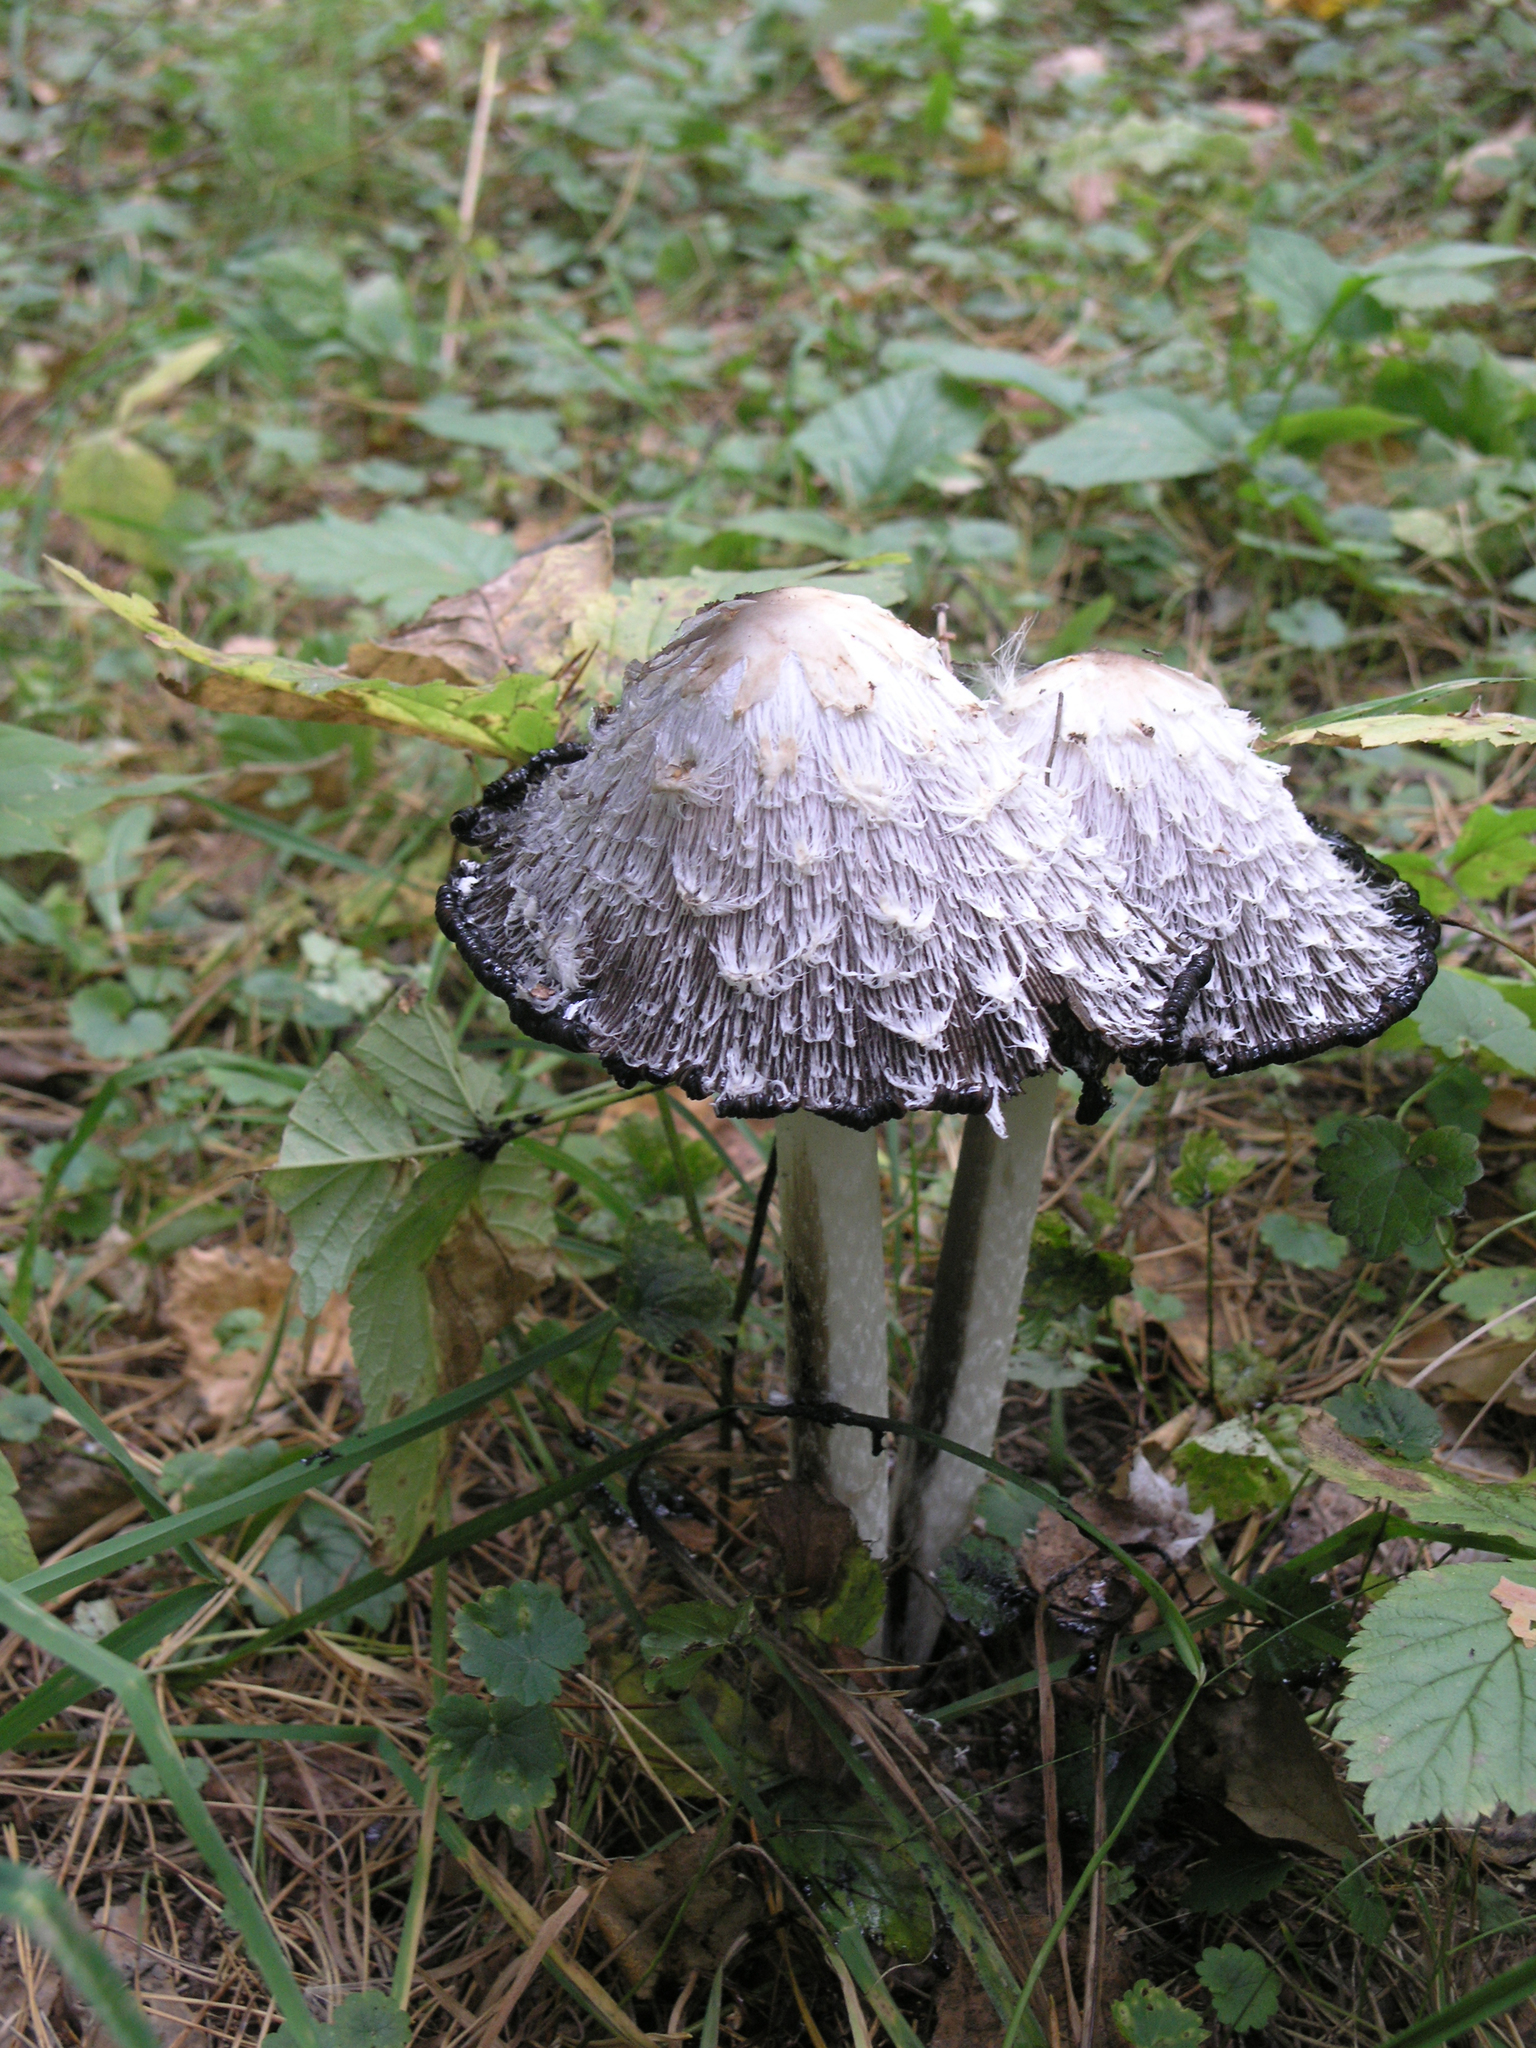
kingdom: Fungi
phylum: Basidiomycota
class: Agaricomycetes
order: Agaricales
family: Agaricaceae
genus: Coprinus
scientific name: Coprinus comatus
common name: Lawyer's wig
